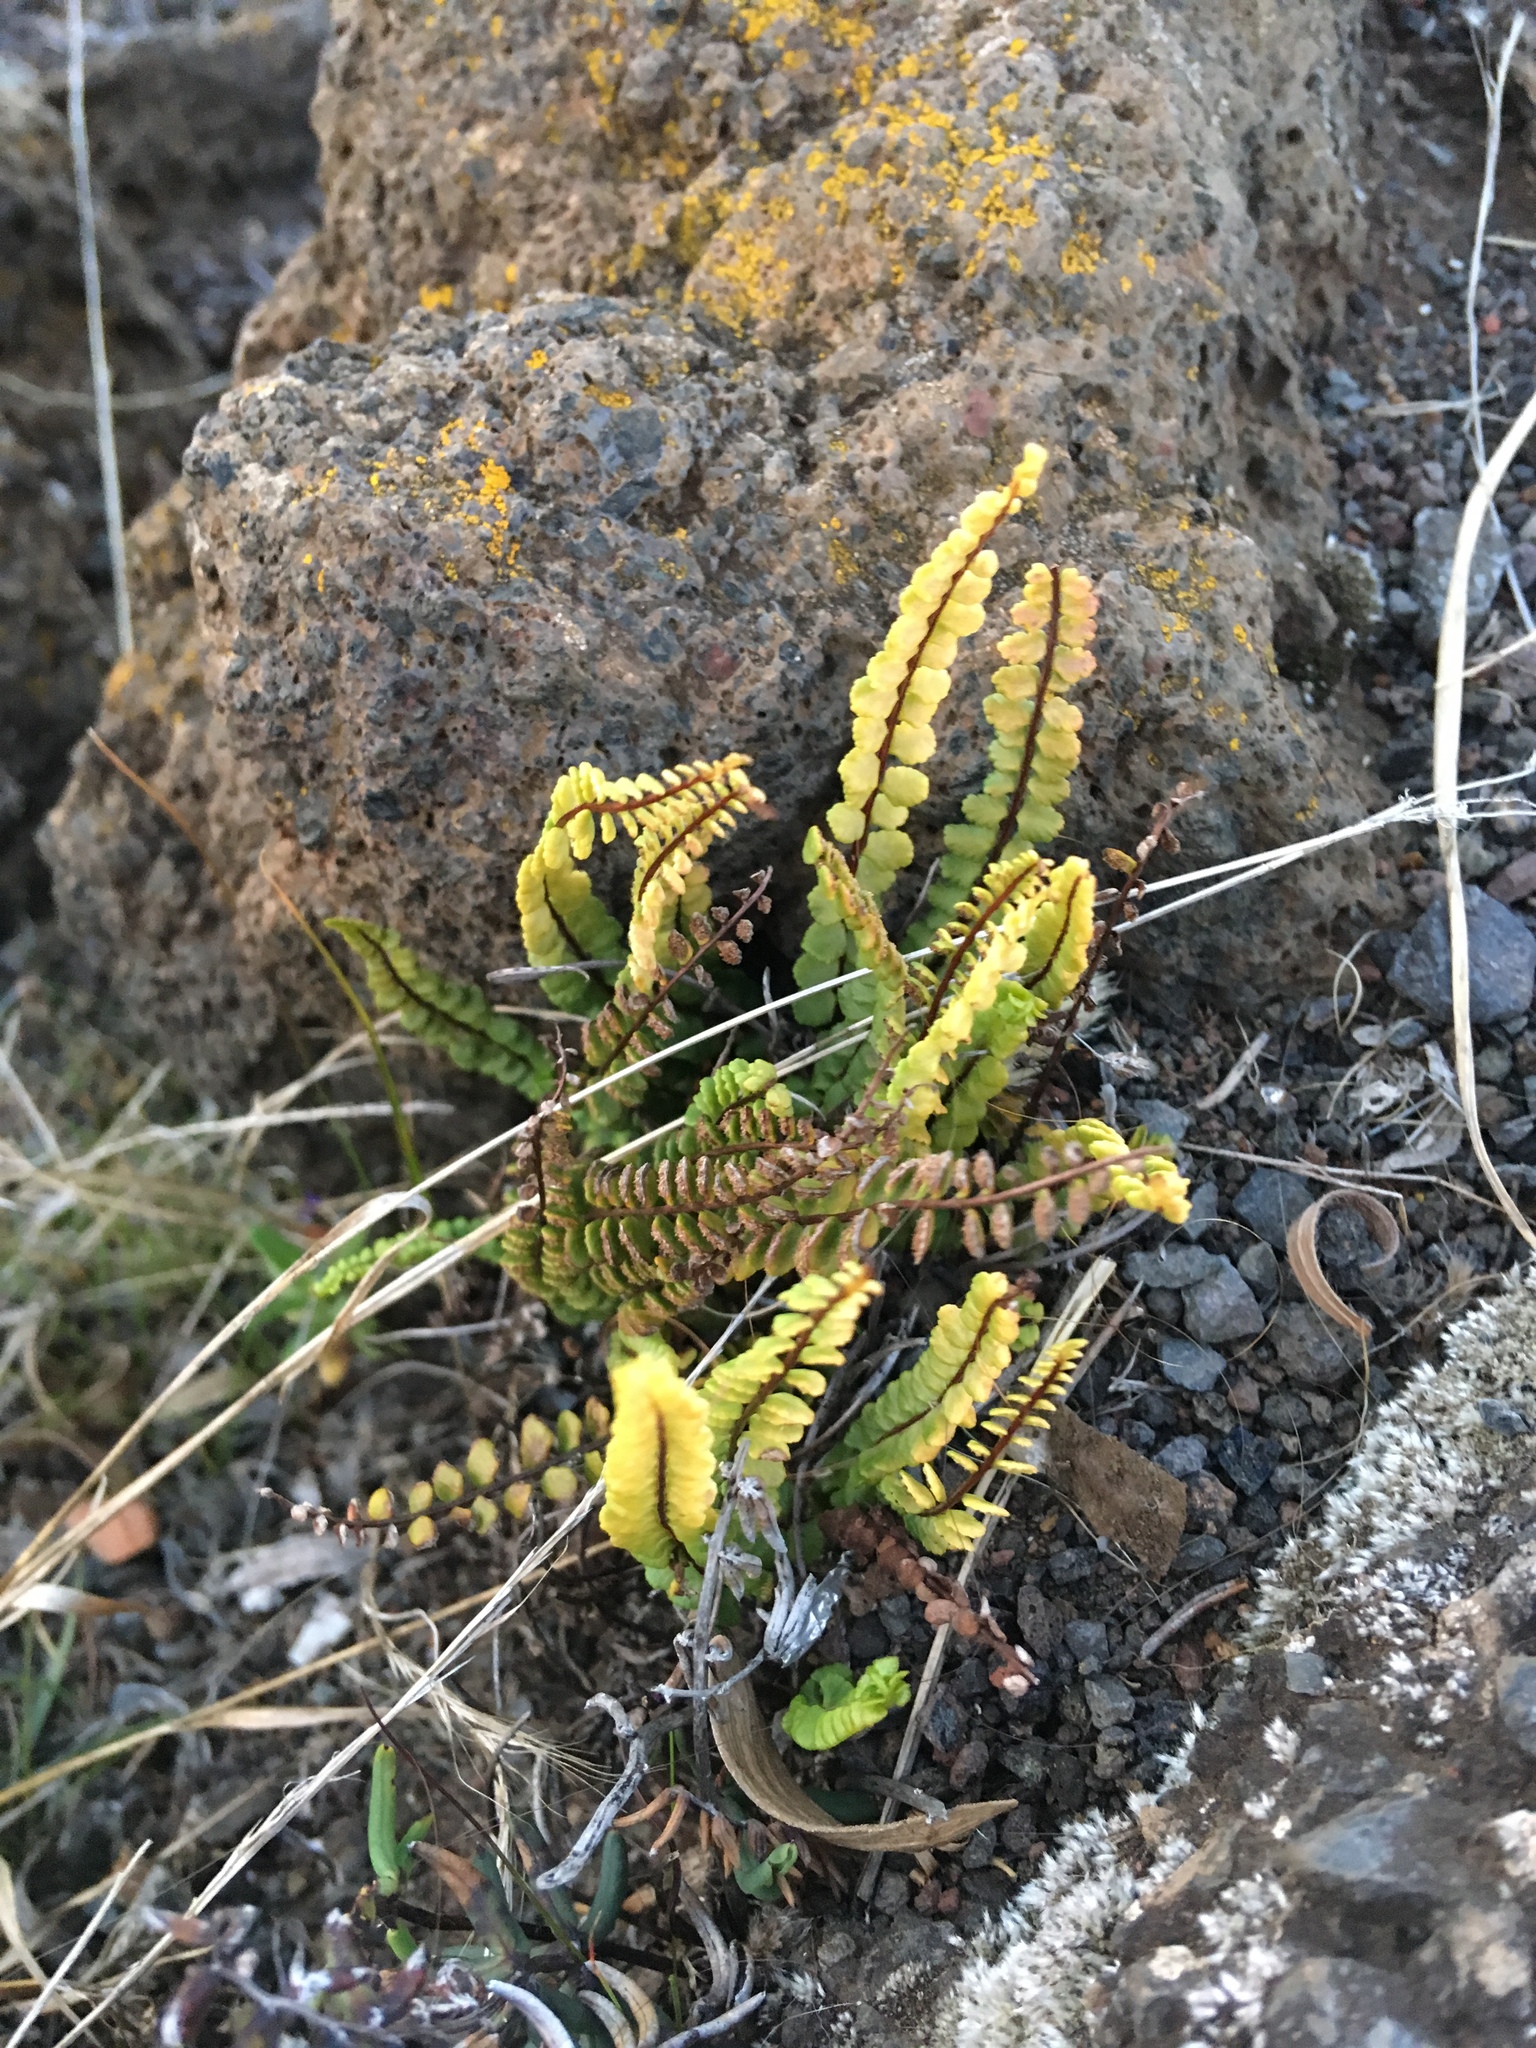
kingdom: Plantae
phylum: Tracheophyta
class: Polypodiopsida
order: Polypodiales
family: Aspleniaceae
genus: Asplenium
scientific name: Asplenium trichomanes
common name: Maidenhair spleenwort
